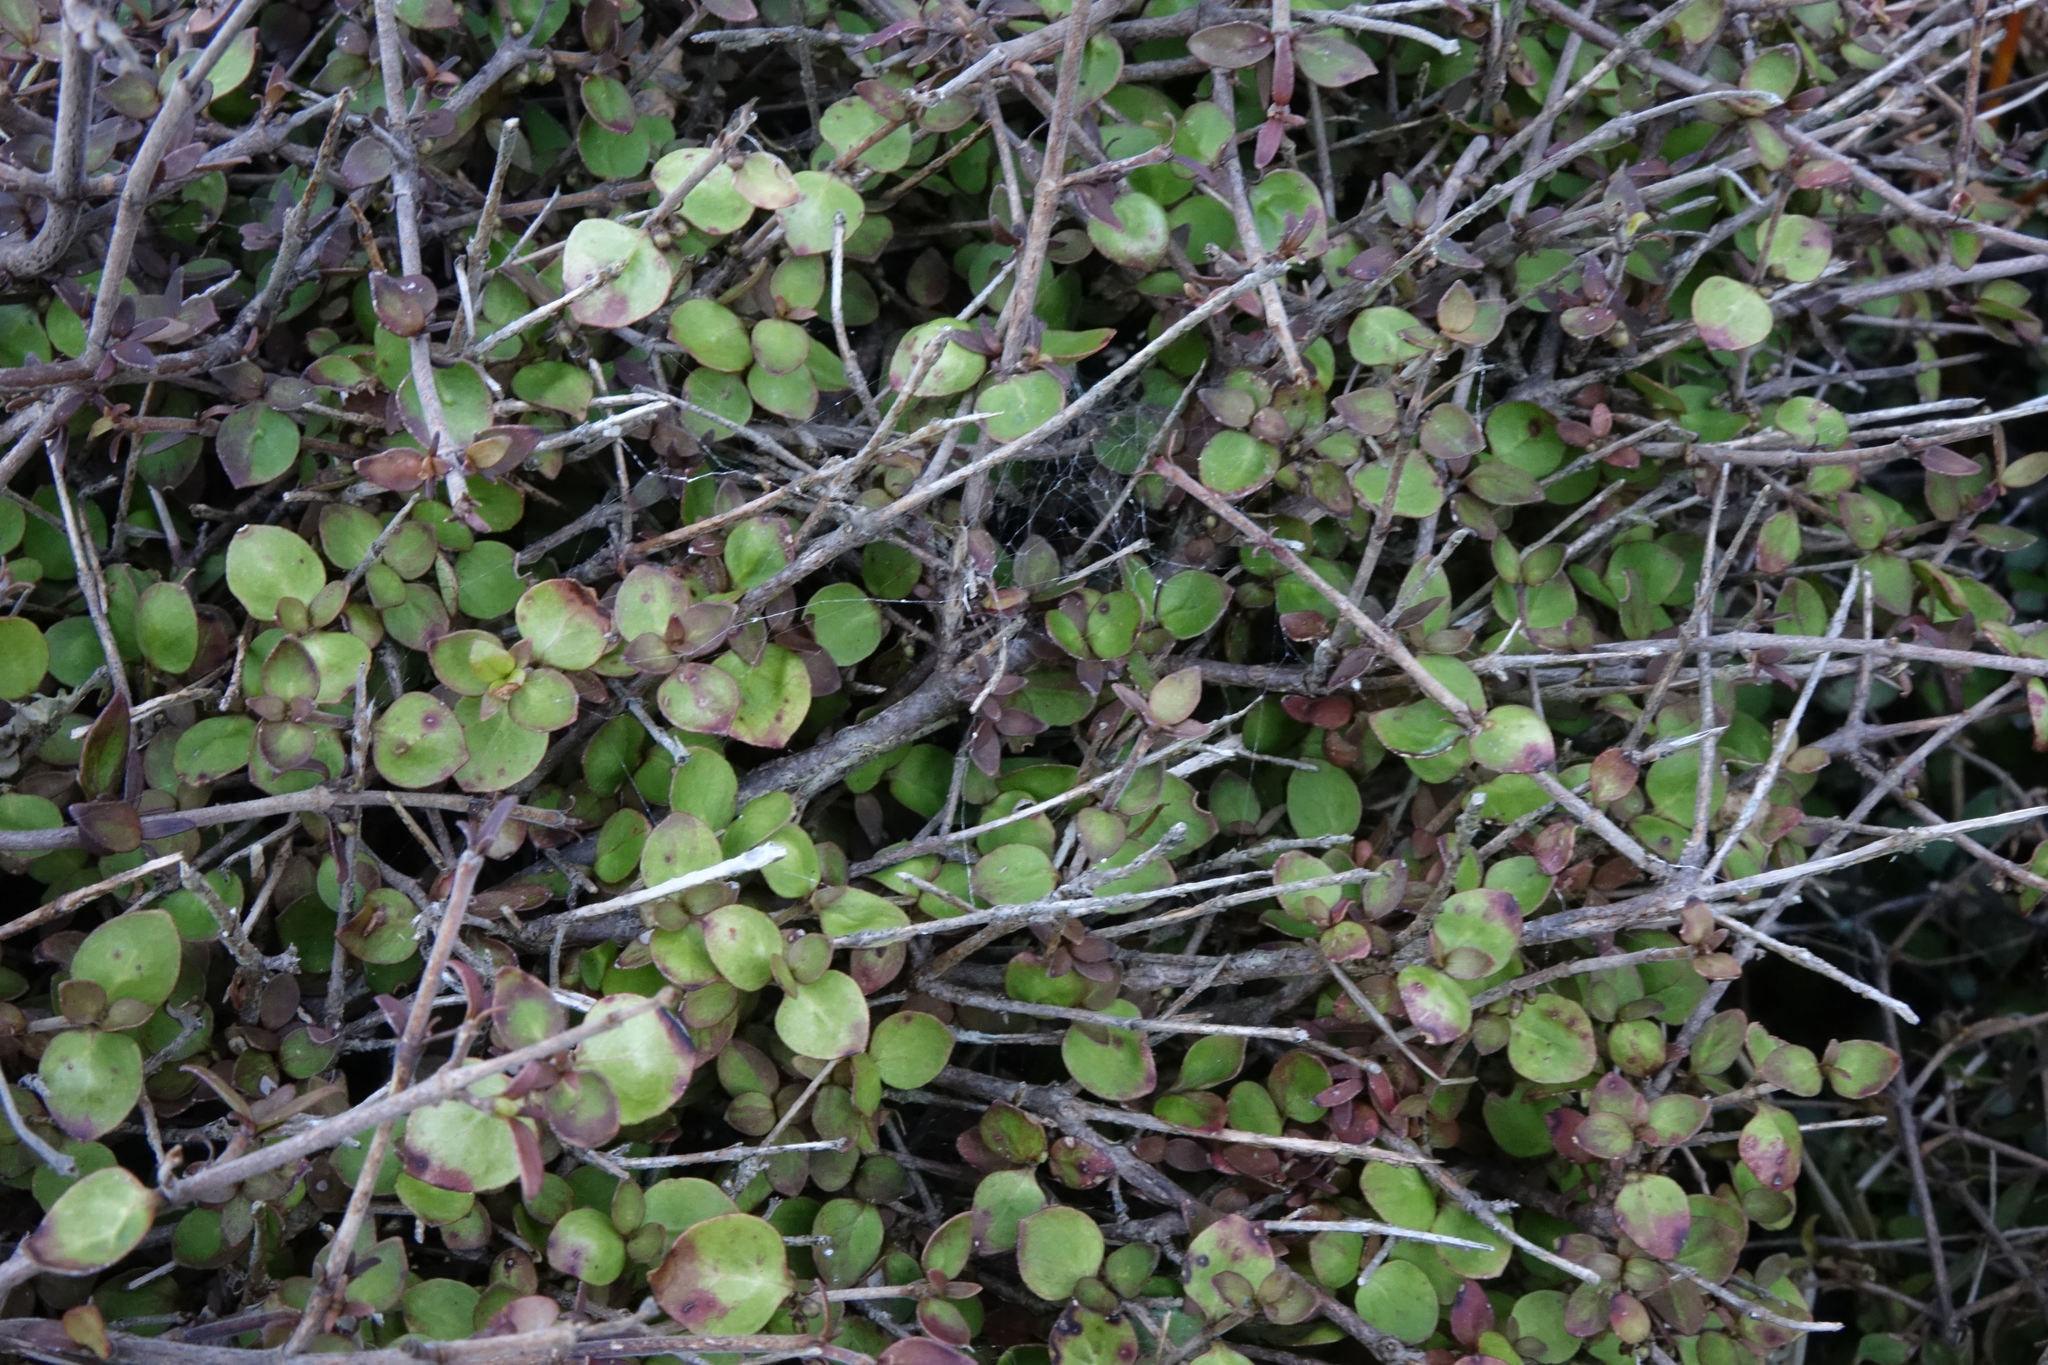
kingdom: Plantae
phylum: Tracheophyta
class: Magnoliopsida
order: Gentianales
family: Rubiaceae
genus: Coprosma
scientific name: Coprosma rhamnoides
